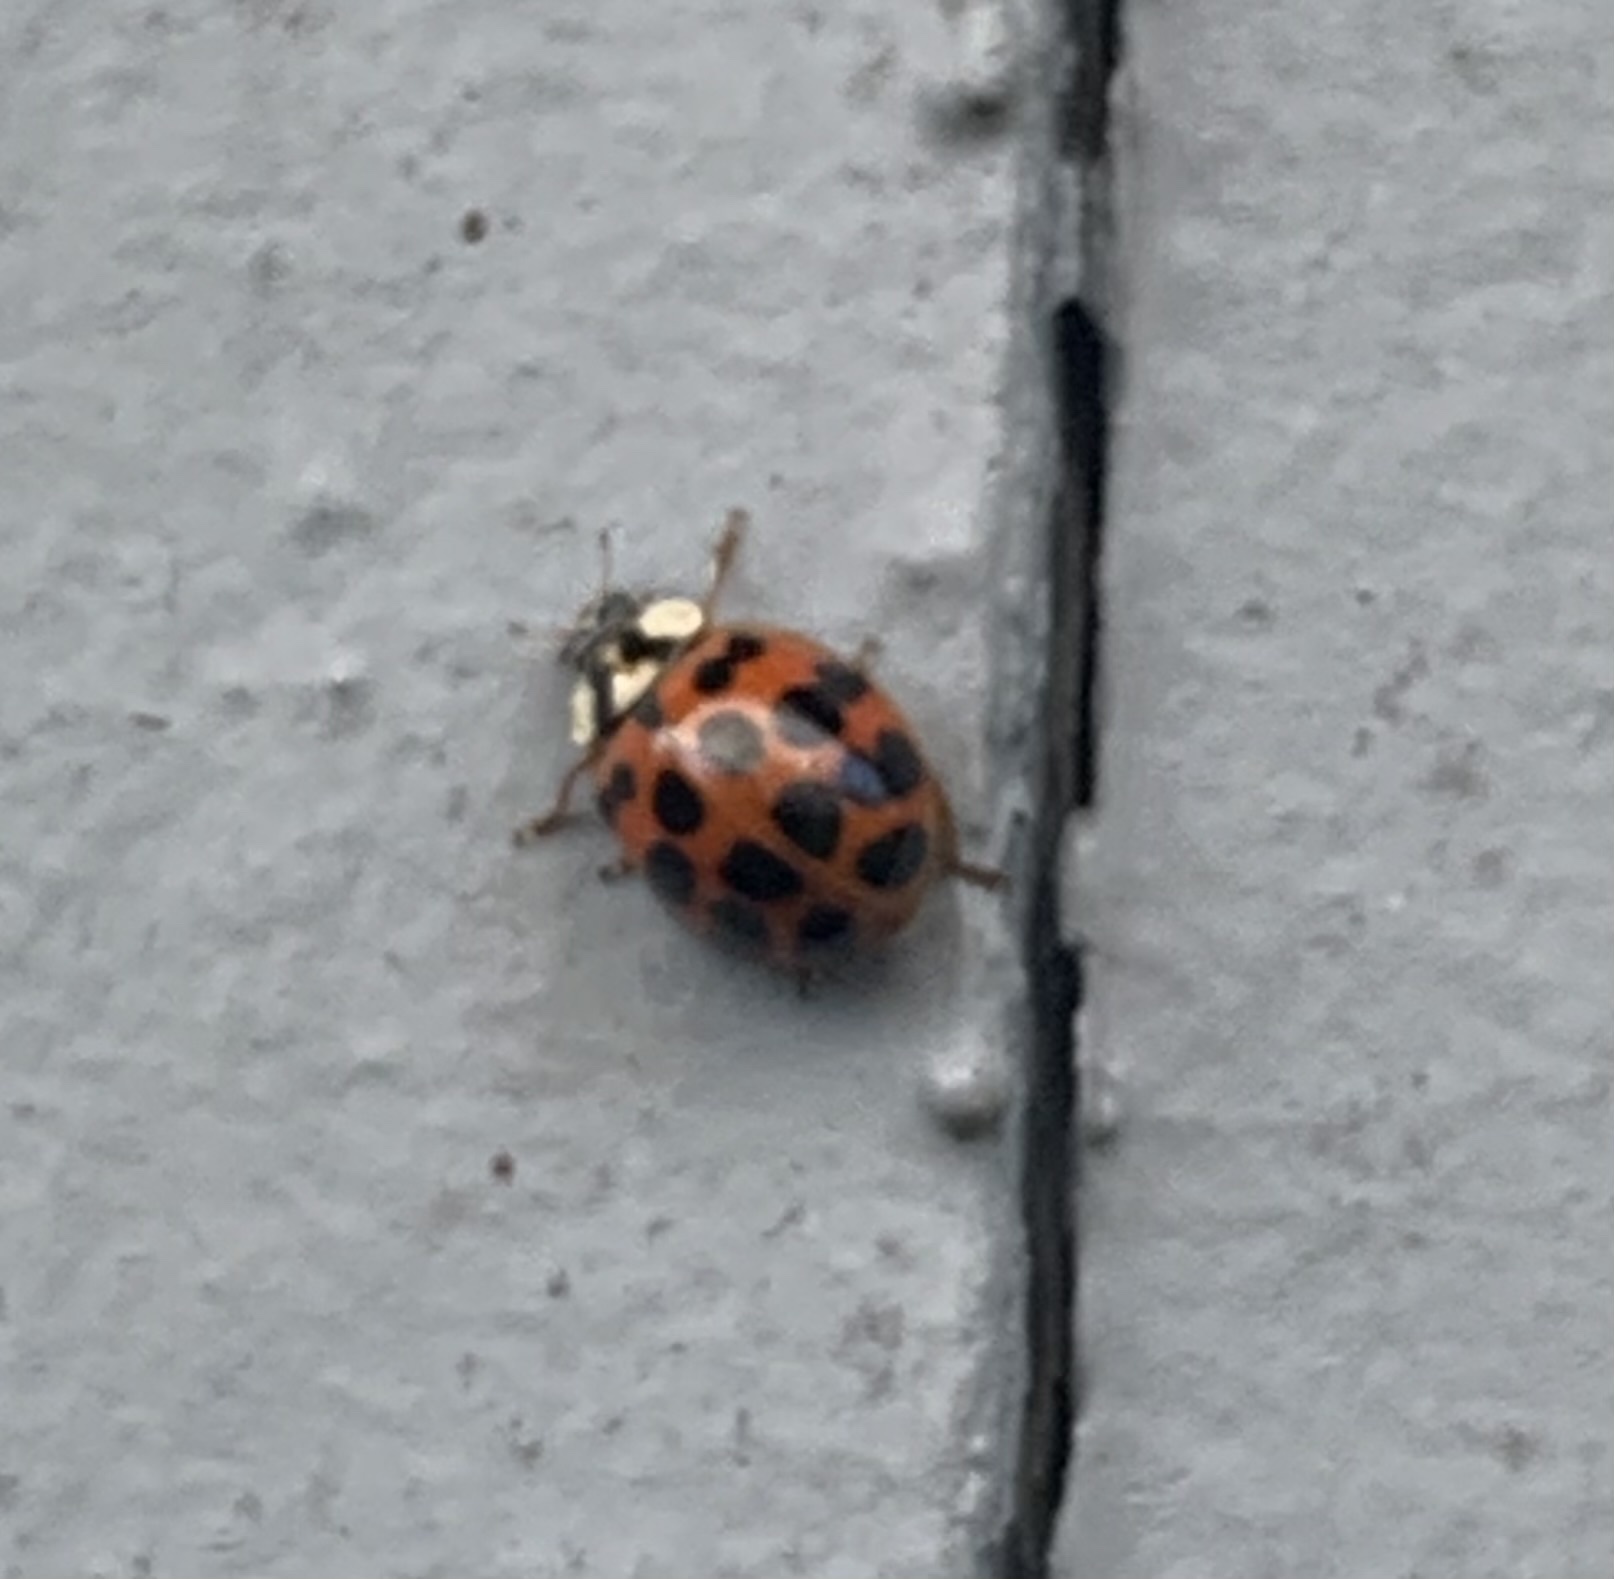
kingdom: Animalia
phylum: Arthropoda
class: Insecta
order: Coleoptera
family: Coccinellidae
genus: Harmonia
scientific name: Harmonia axyridis
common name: Harlequin ladybird
